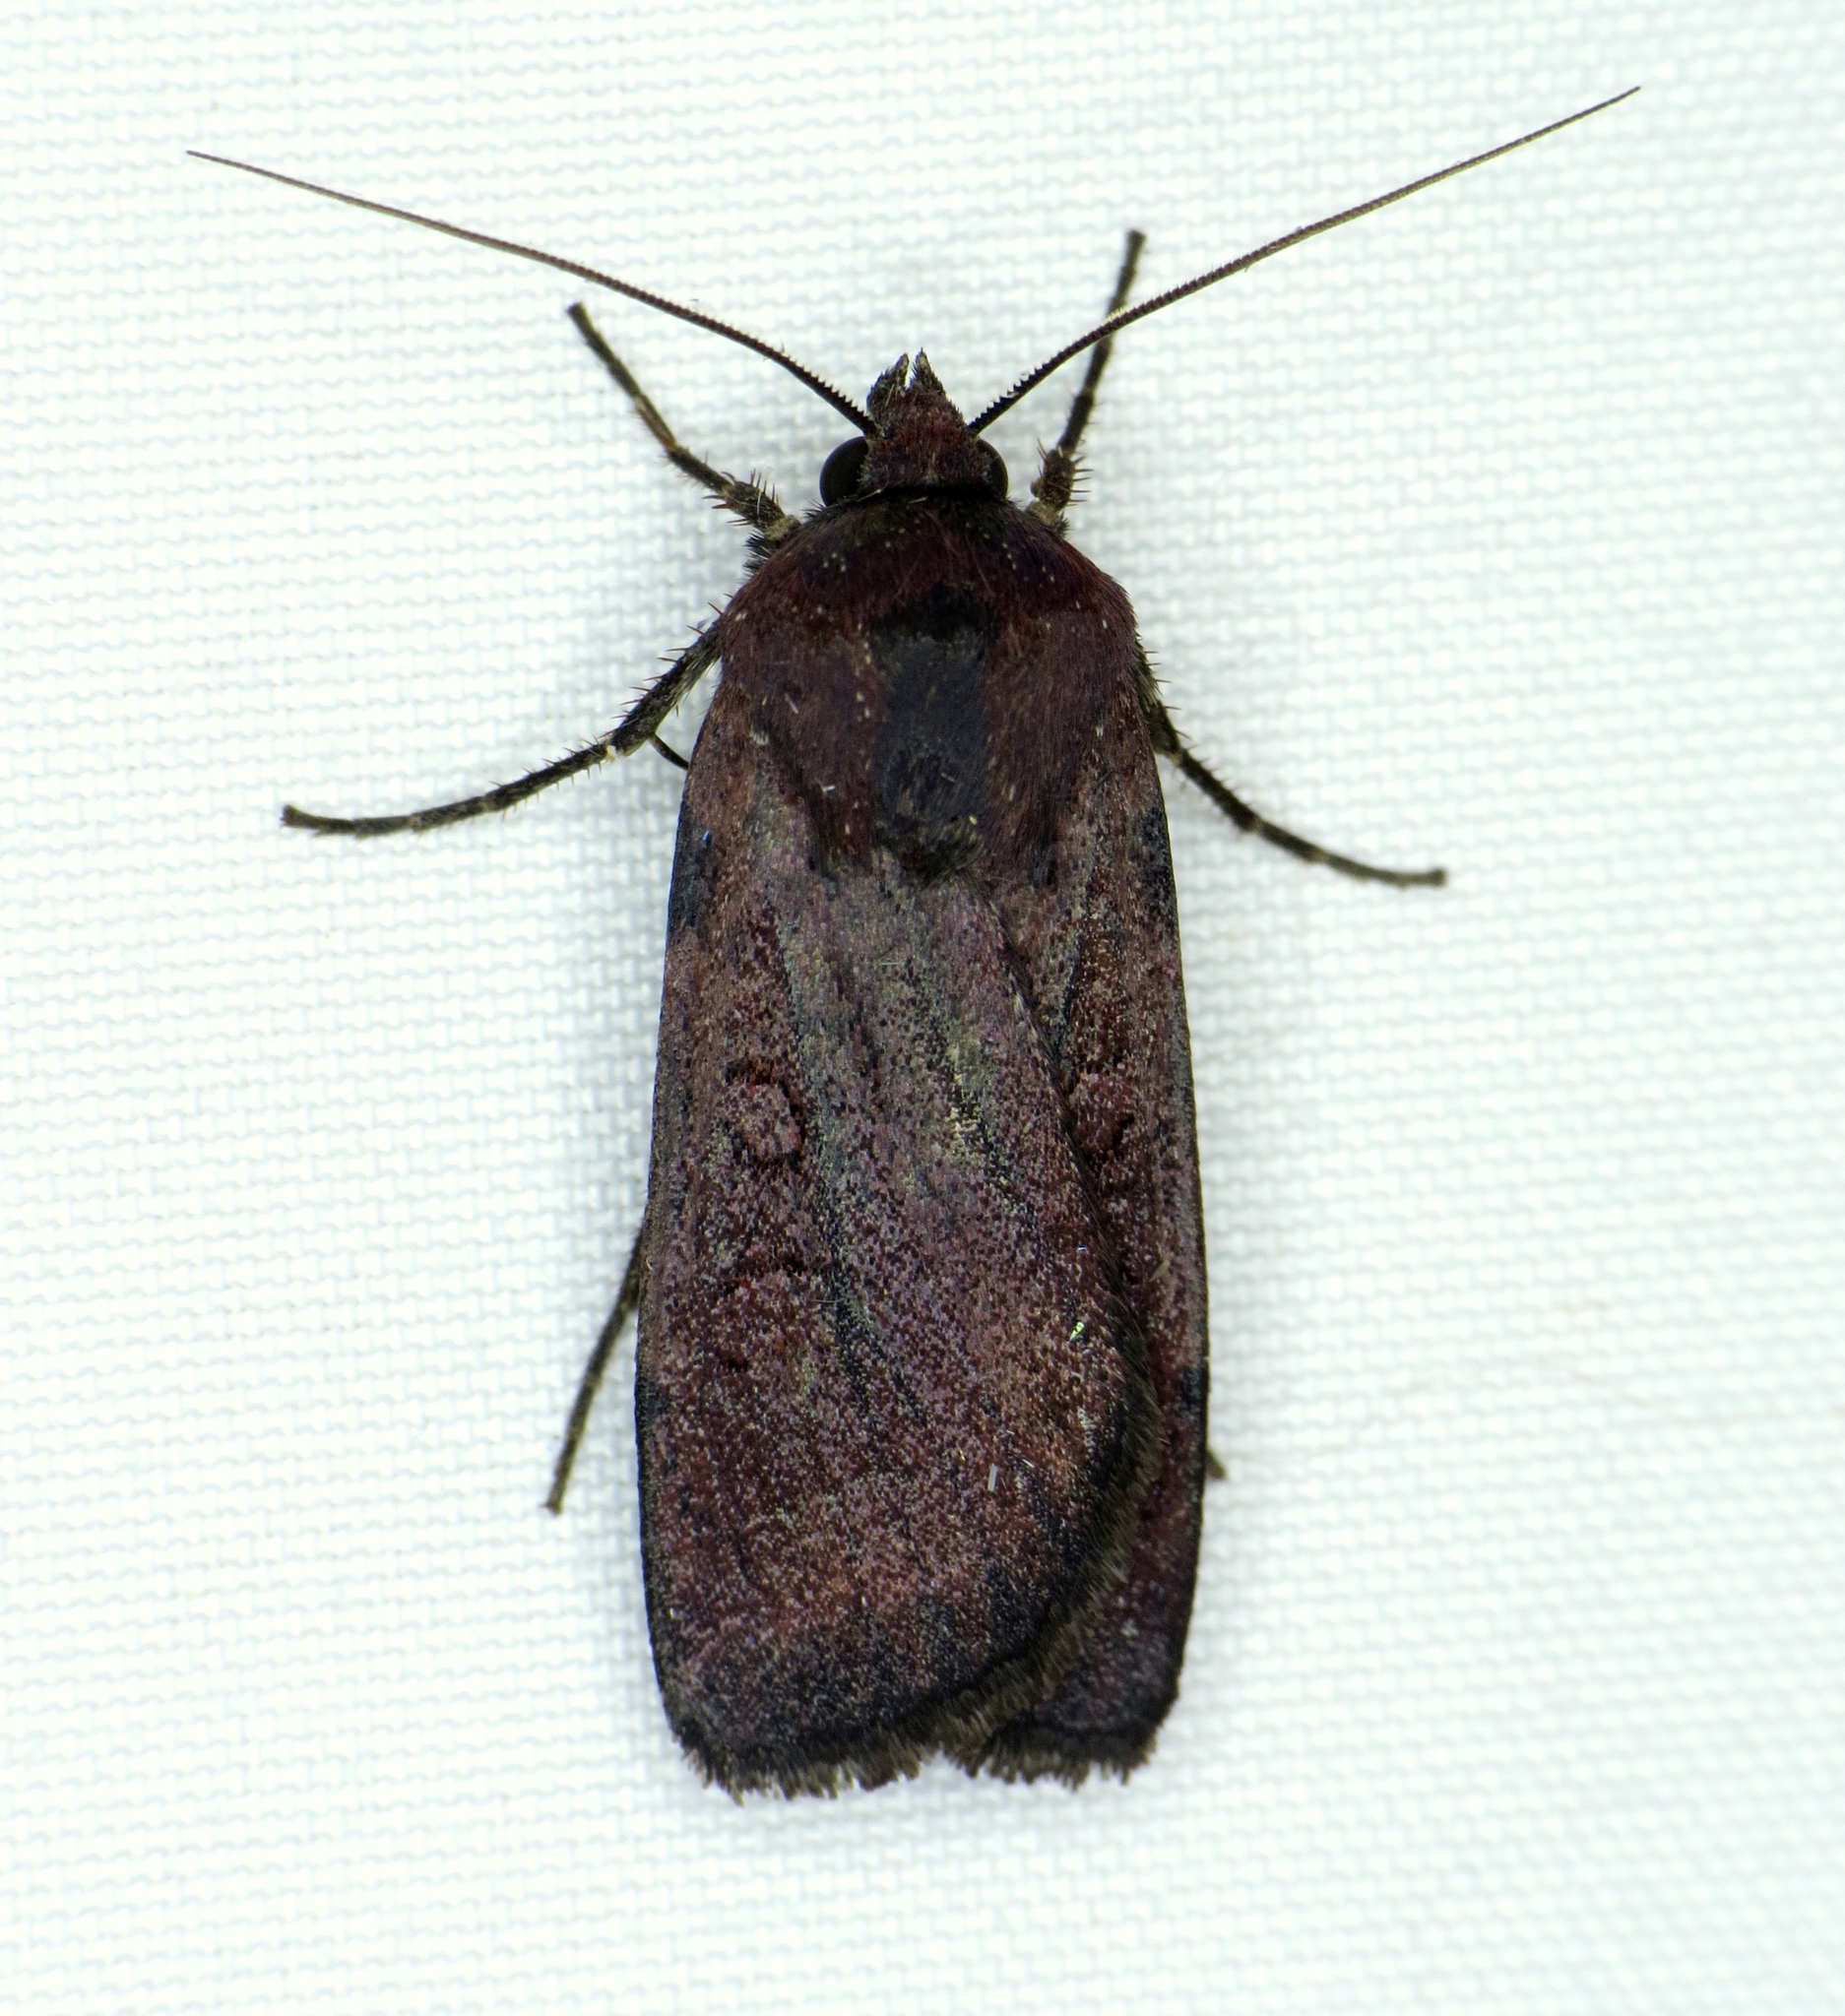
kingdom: Animalia
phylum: Arthropoda
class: Insecta
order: Lepidoptera
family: Noctuidae
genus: Euxoa
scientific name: Euxoa perpolita
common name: Polished dart
